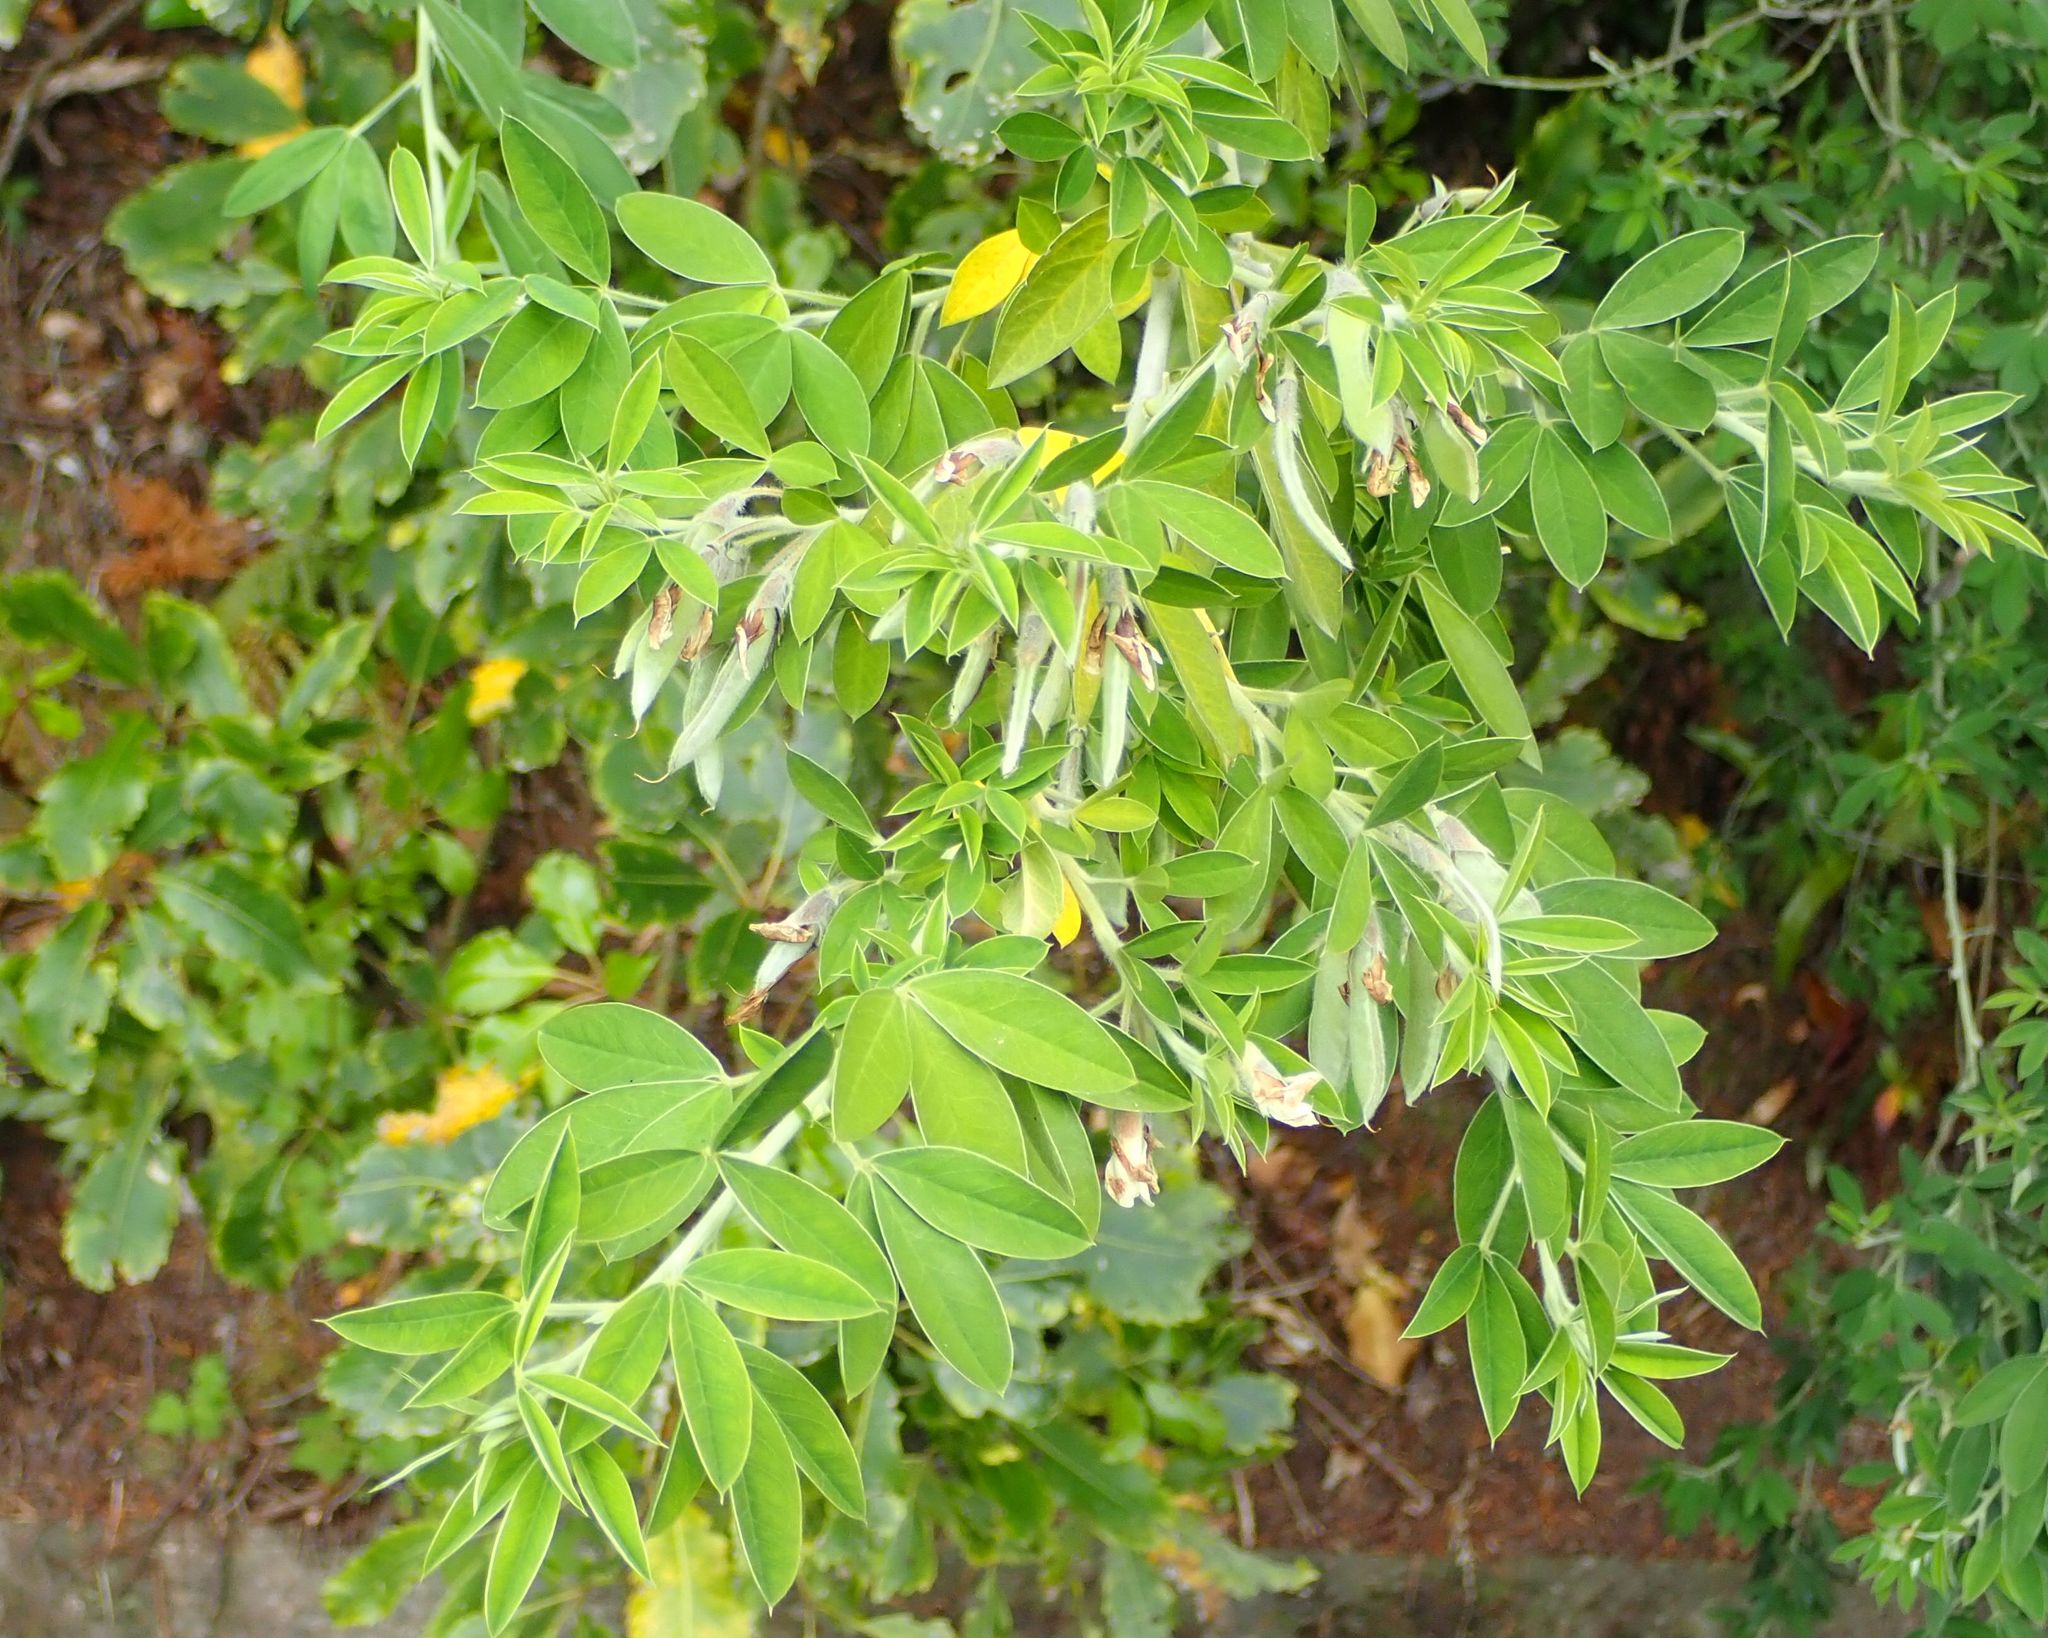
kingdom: Plantae
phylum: Tracheophyta
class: Magnoliopsida
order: Fabales
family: Fabaceae
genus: Laburnum
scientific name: Laburnum anagyroides
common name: Laburnum
